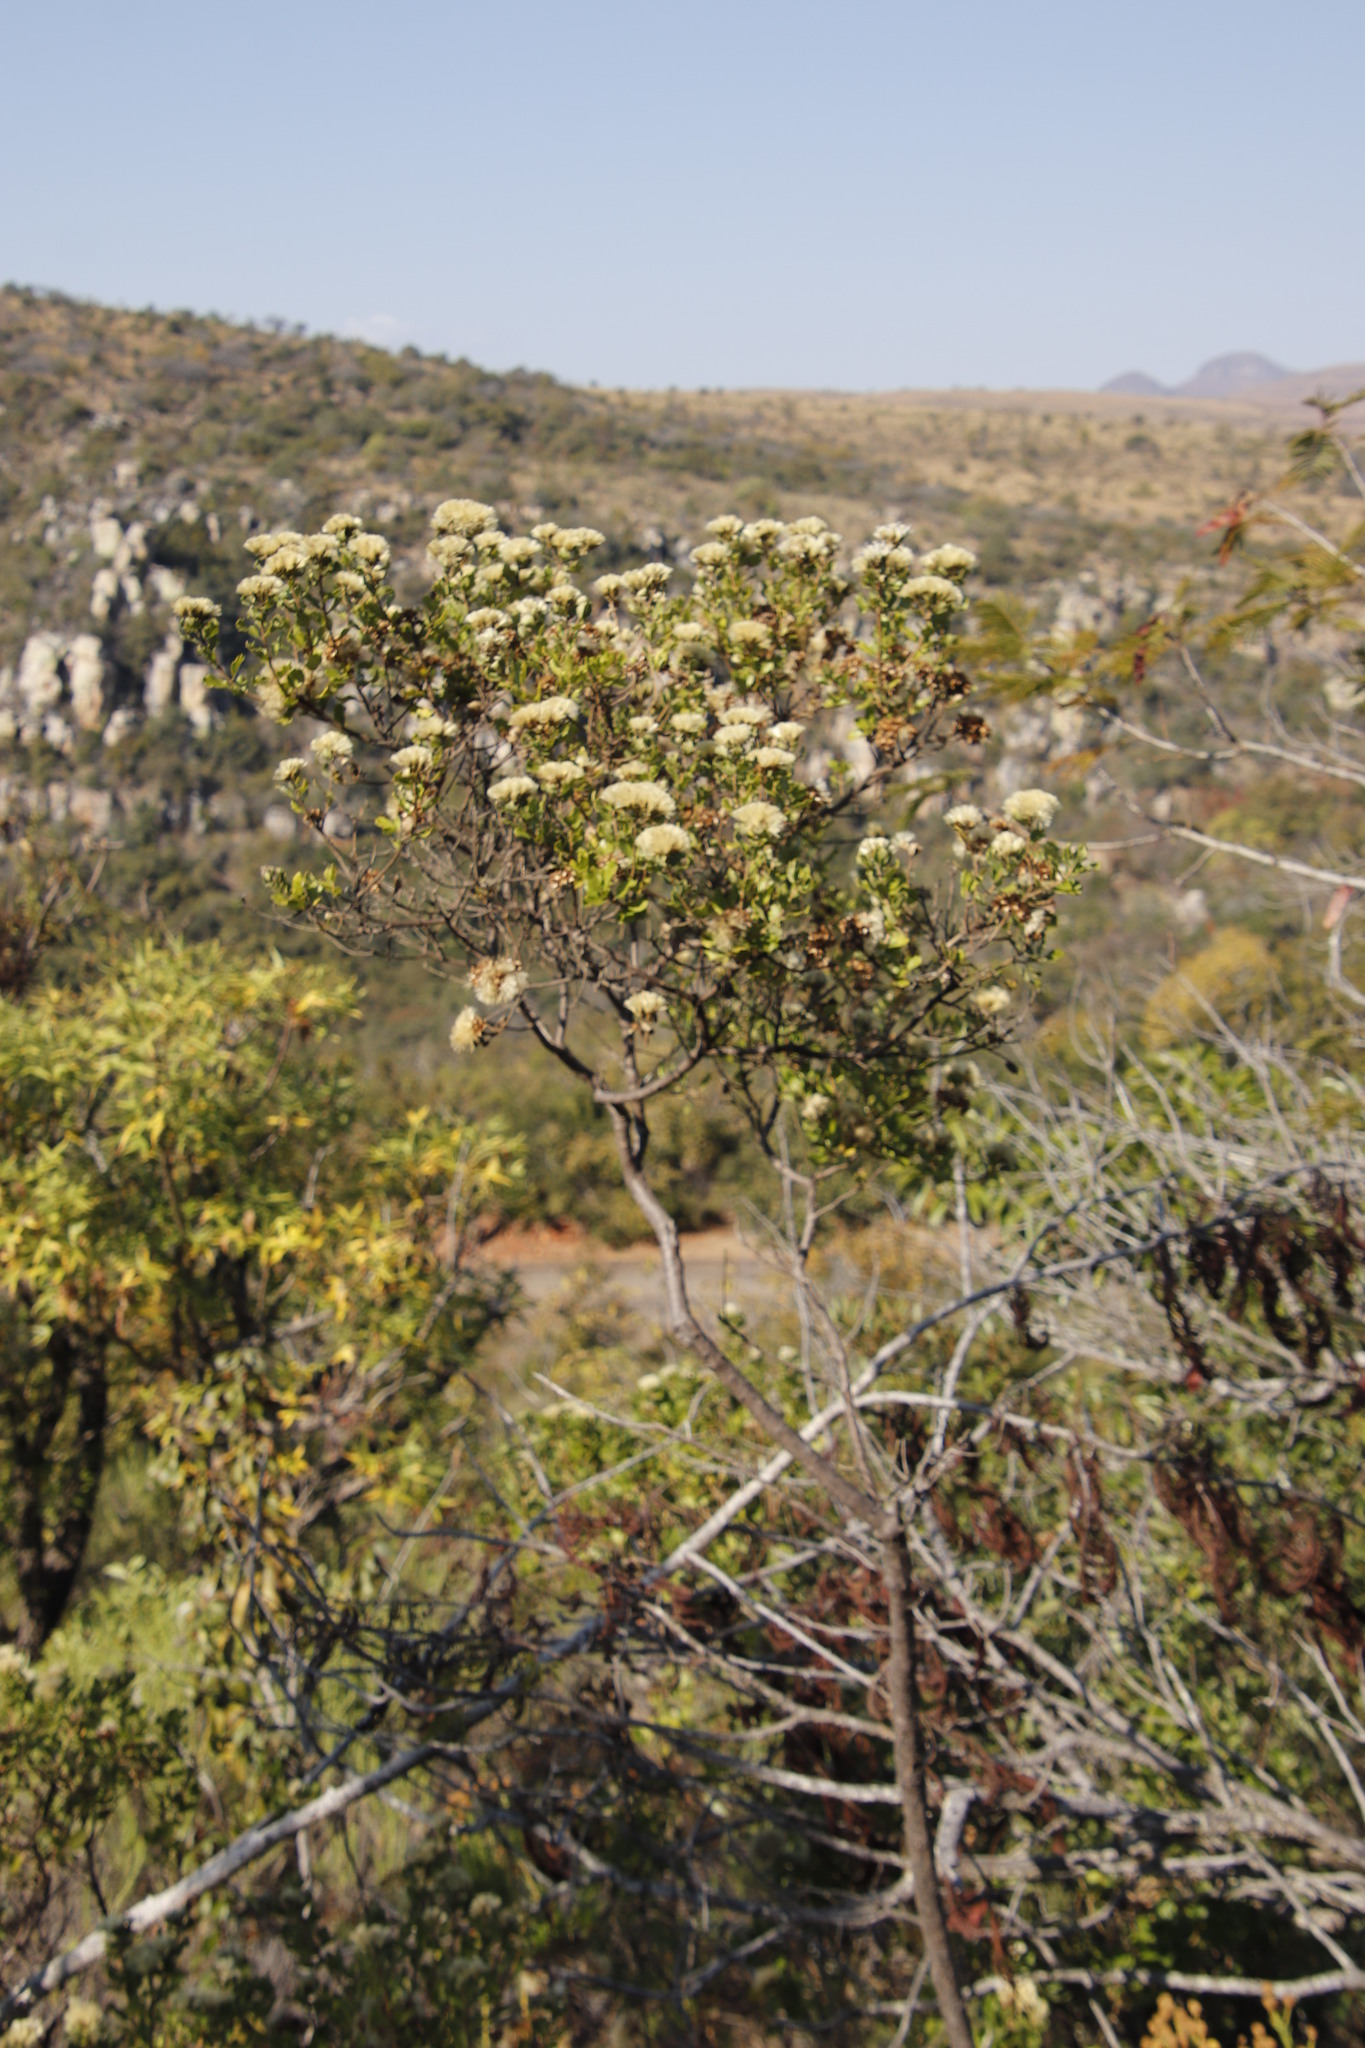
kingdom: Plantae
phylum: Tracheophyta
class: Magnoliopsida
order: Asterales
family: Asteraceae
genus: Gymnanthemum
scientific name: Gymnanthemum triflorum
